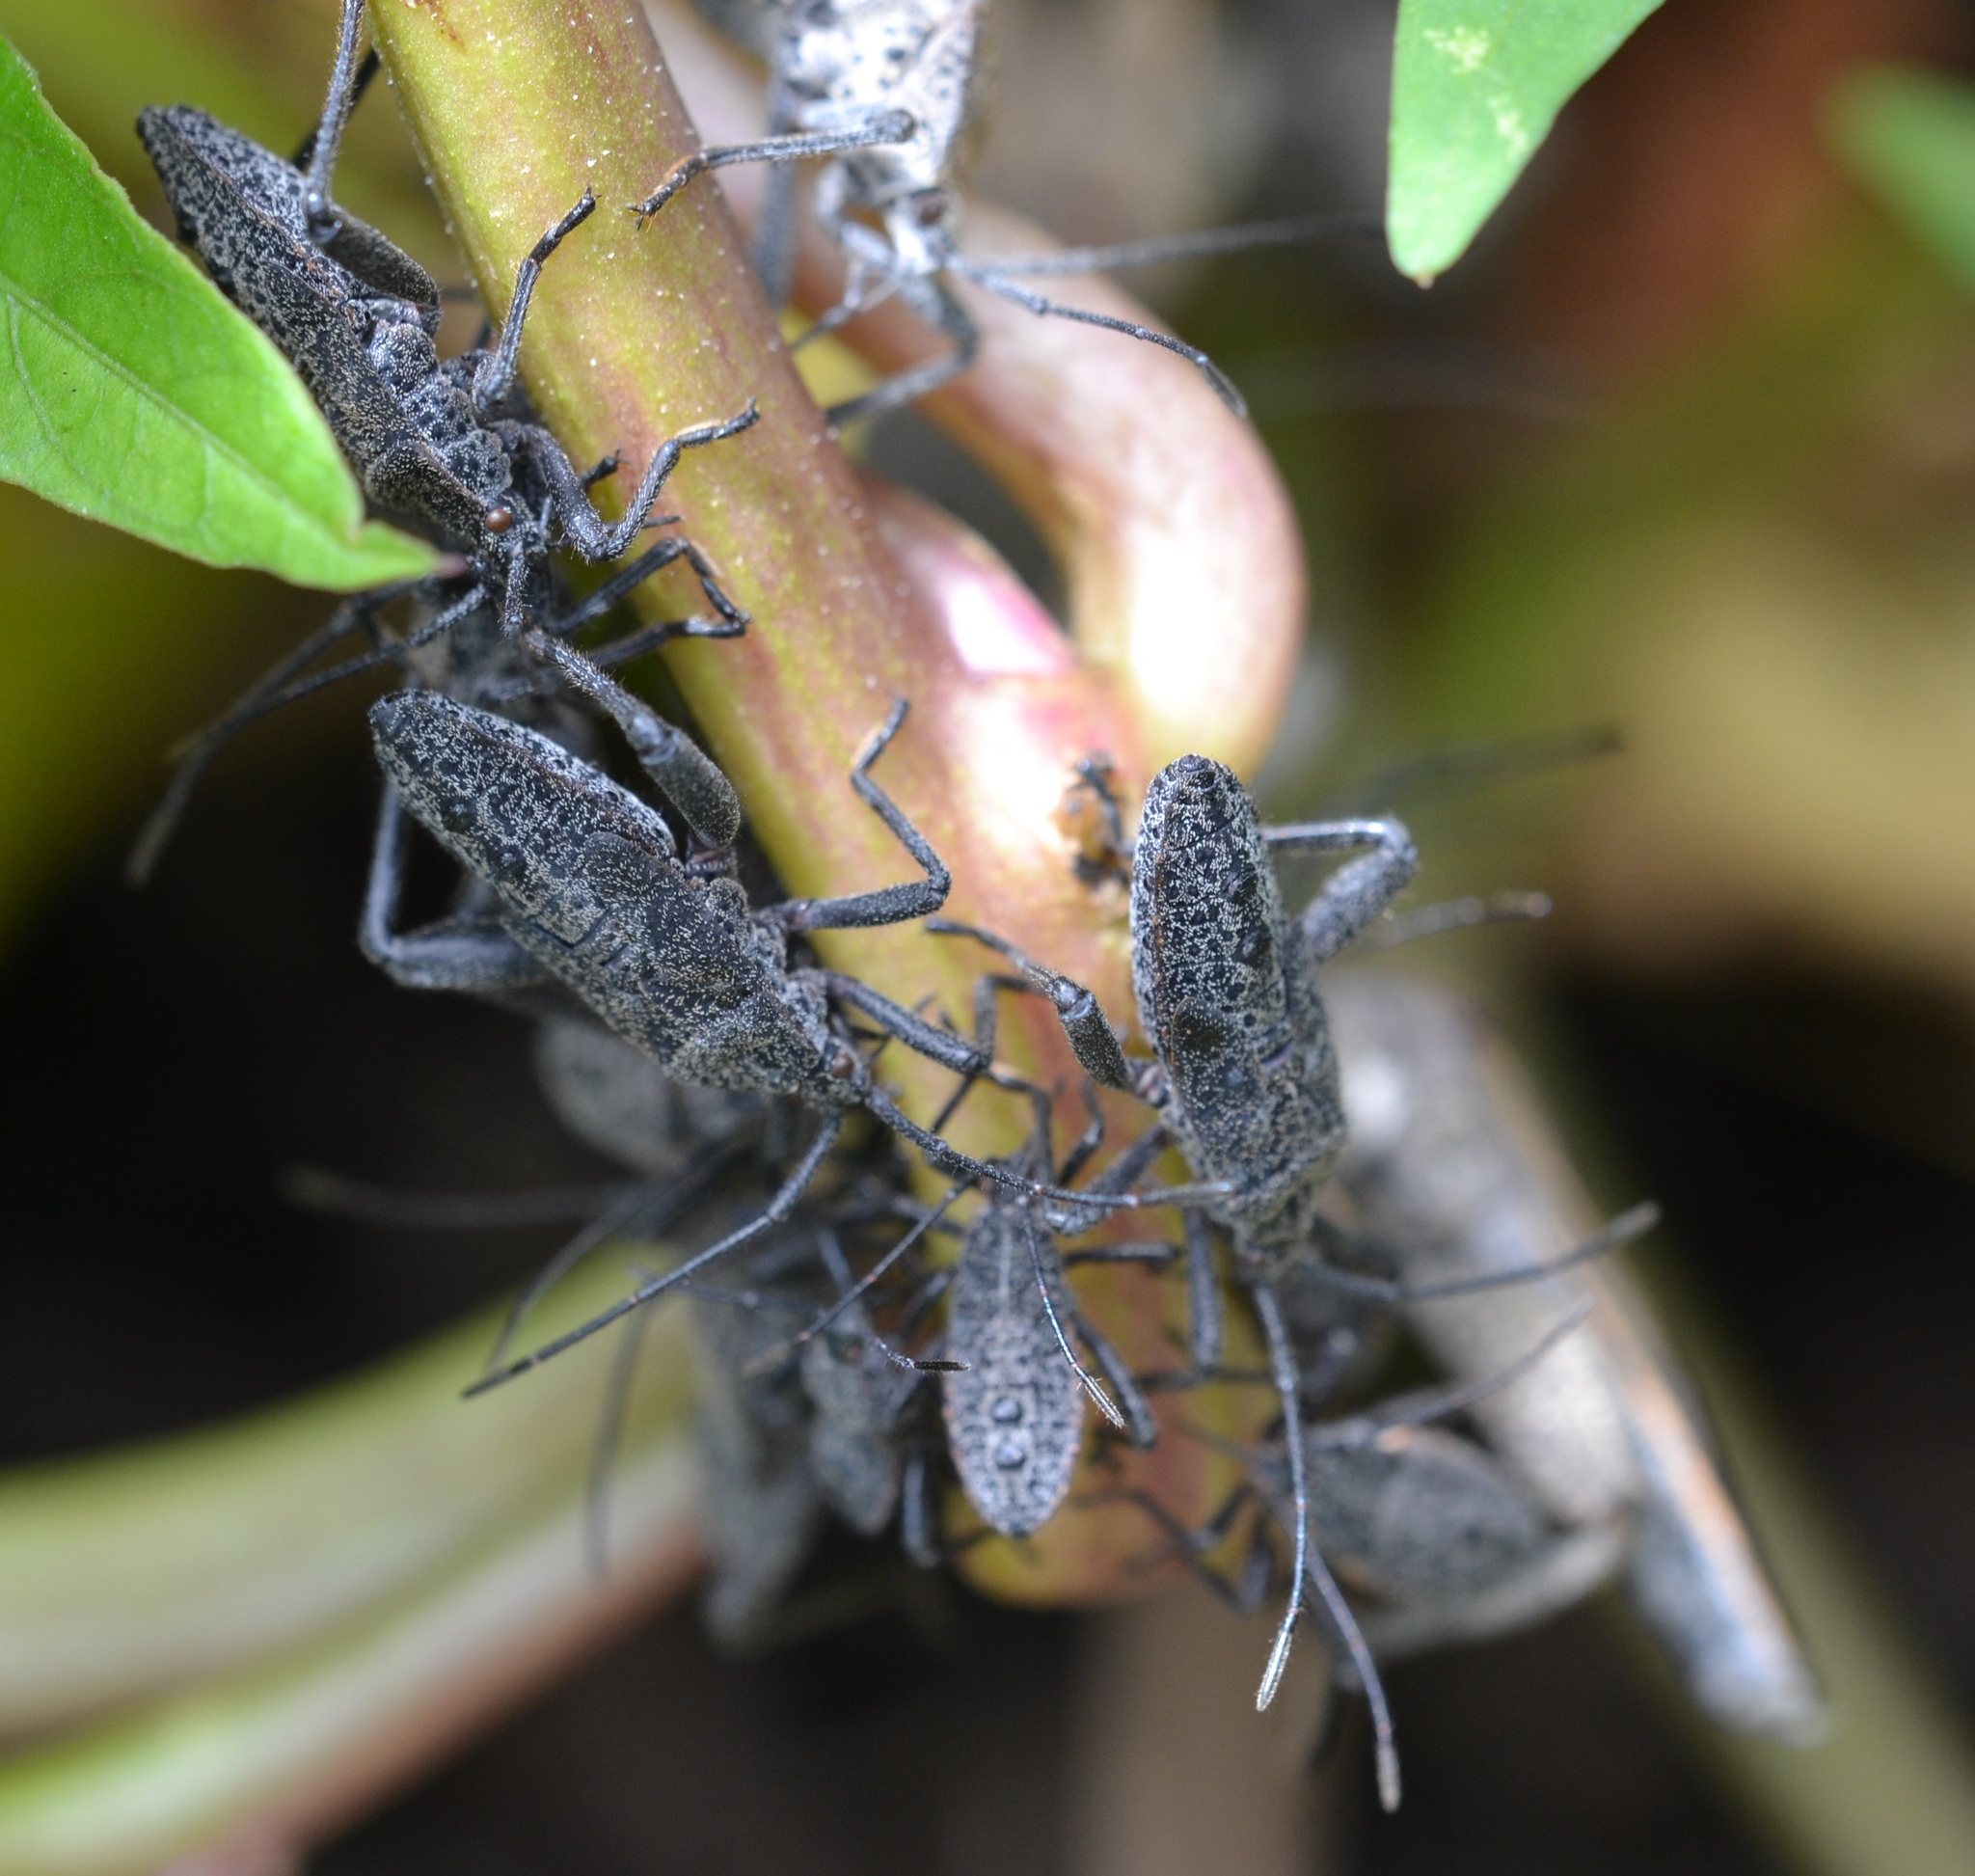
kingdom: Animalia
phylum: Arthropoda
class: Insecta
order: Hemiptera
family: Coreidae
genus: Physomerus
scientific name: Physomerus grossipes
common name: Squash bug
